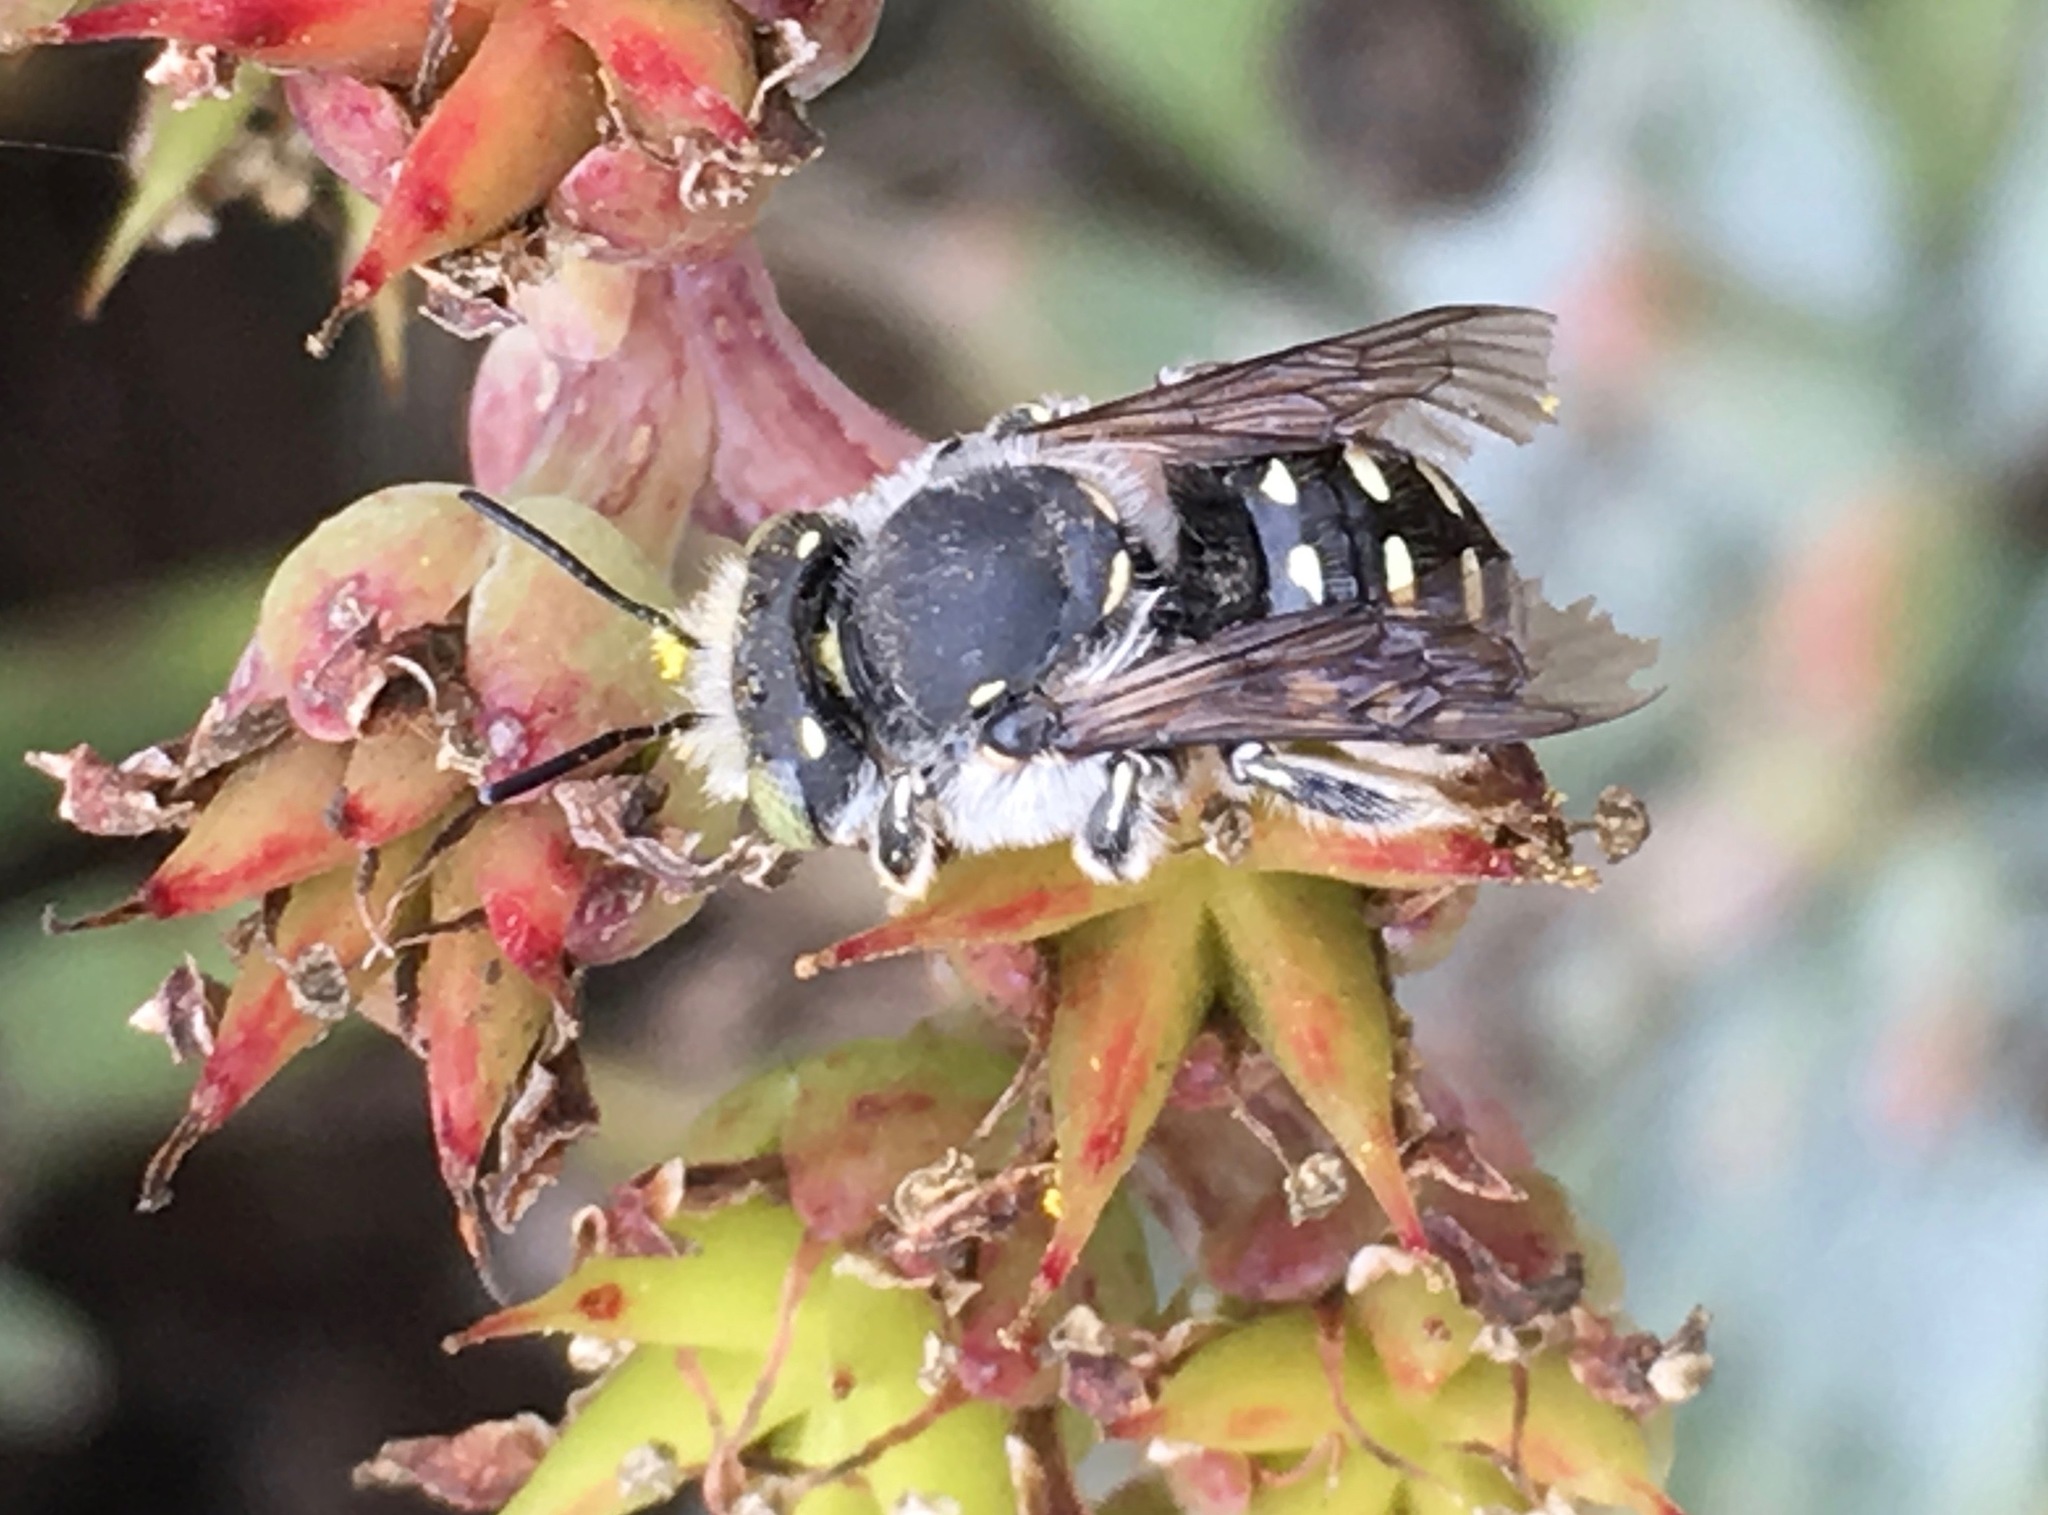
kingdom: Animalia
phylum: Arthropoda
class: Insecta
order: Hymenoptera
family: Megachilidae
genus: Anthidium
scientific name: Anthidium collectum
